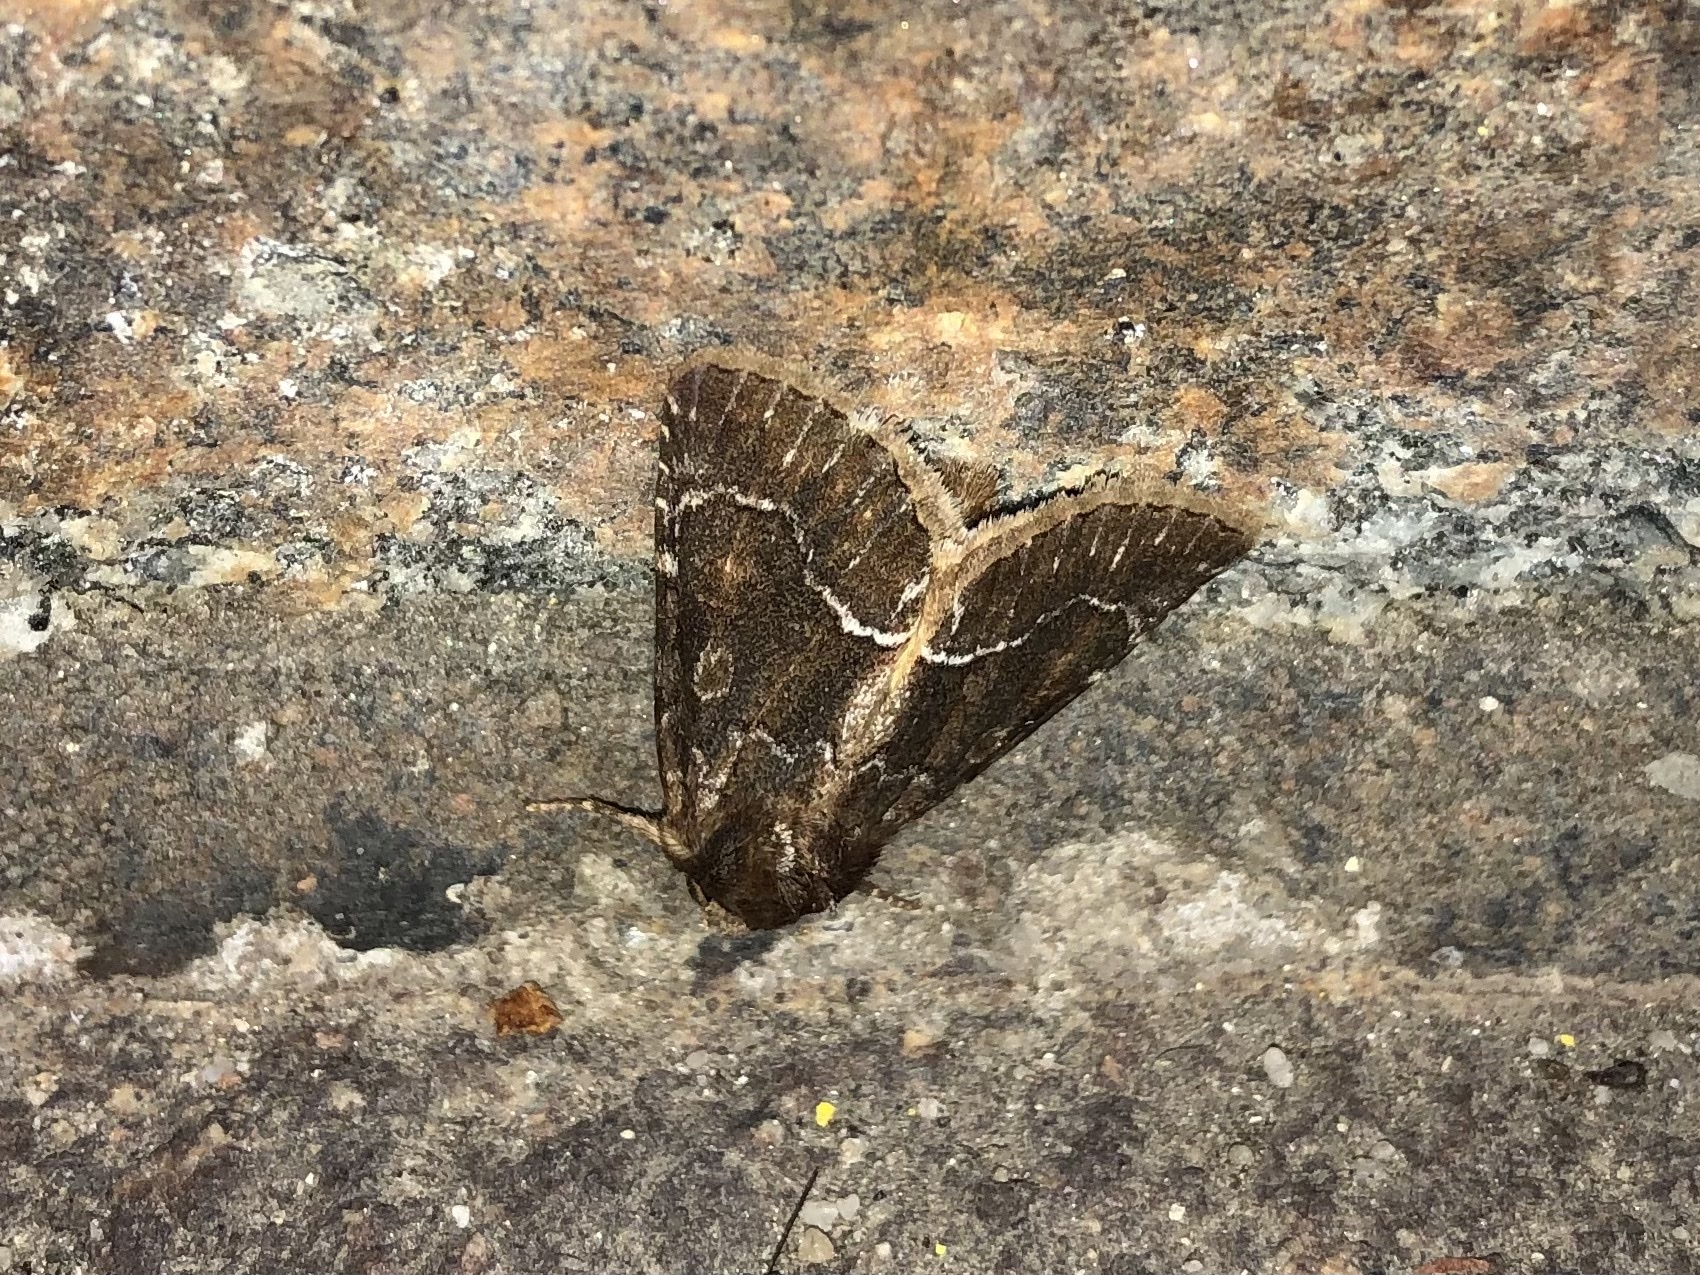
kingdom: Animalia
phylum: Arthropoda
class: Insecta
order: Lepidoptera
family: Noctuidae
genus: Thalpophila
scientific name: Thalpophila matura
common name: Straw underwing
